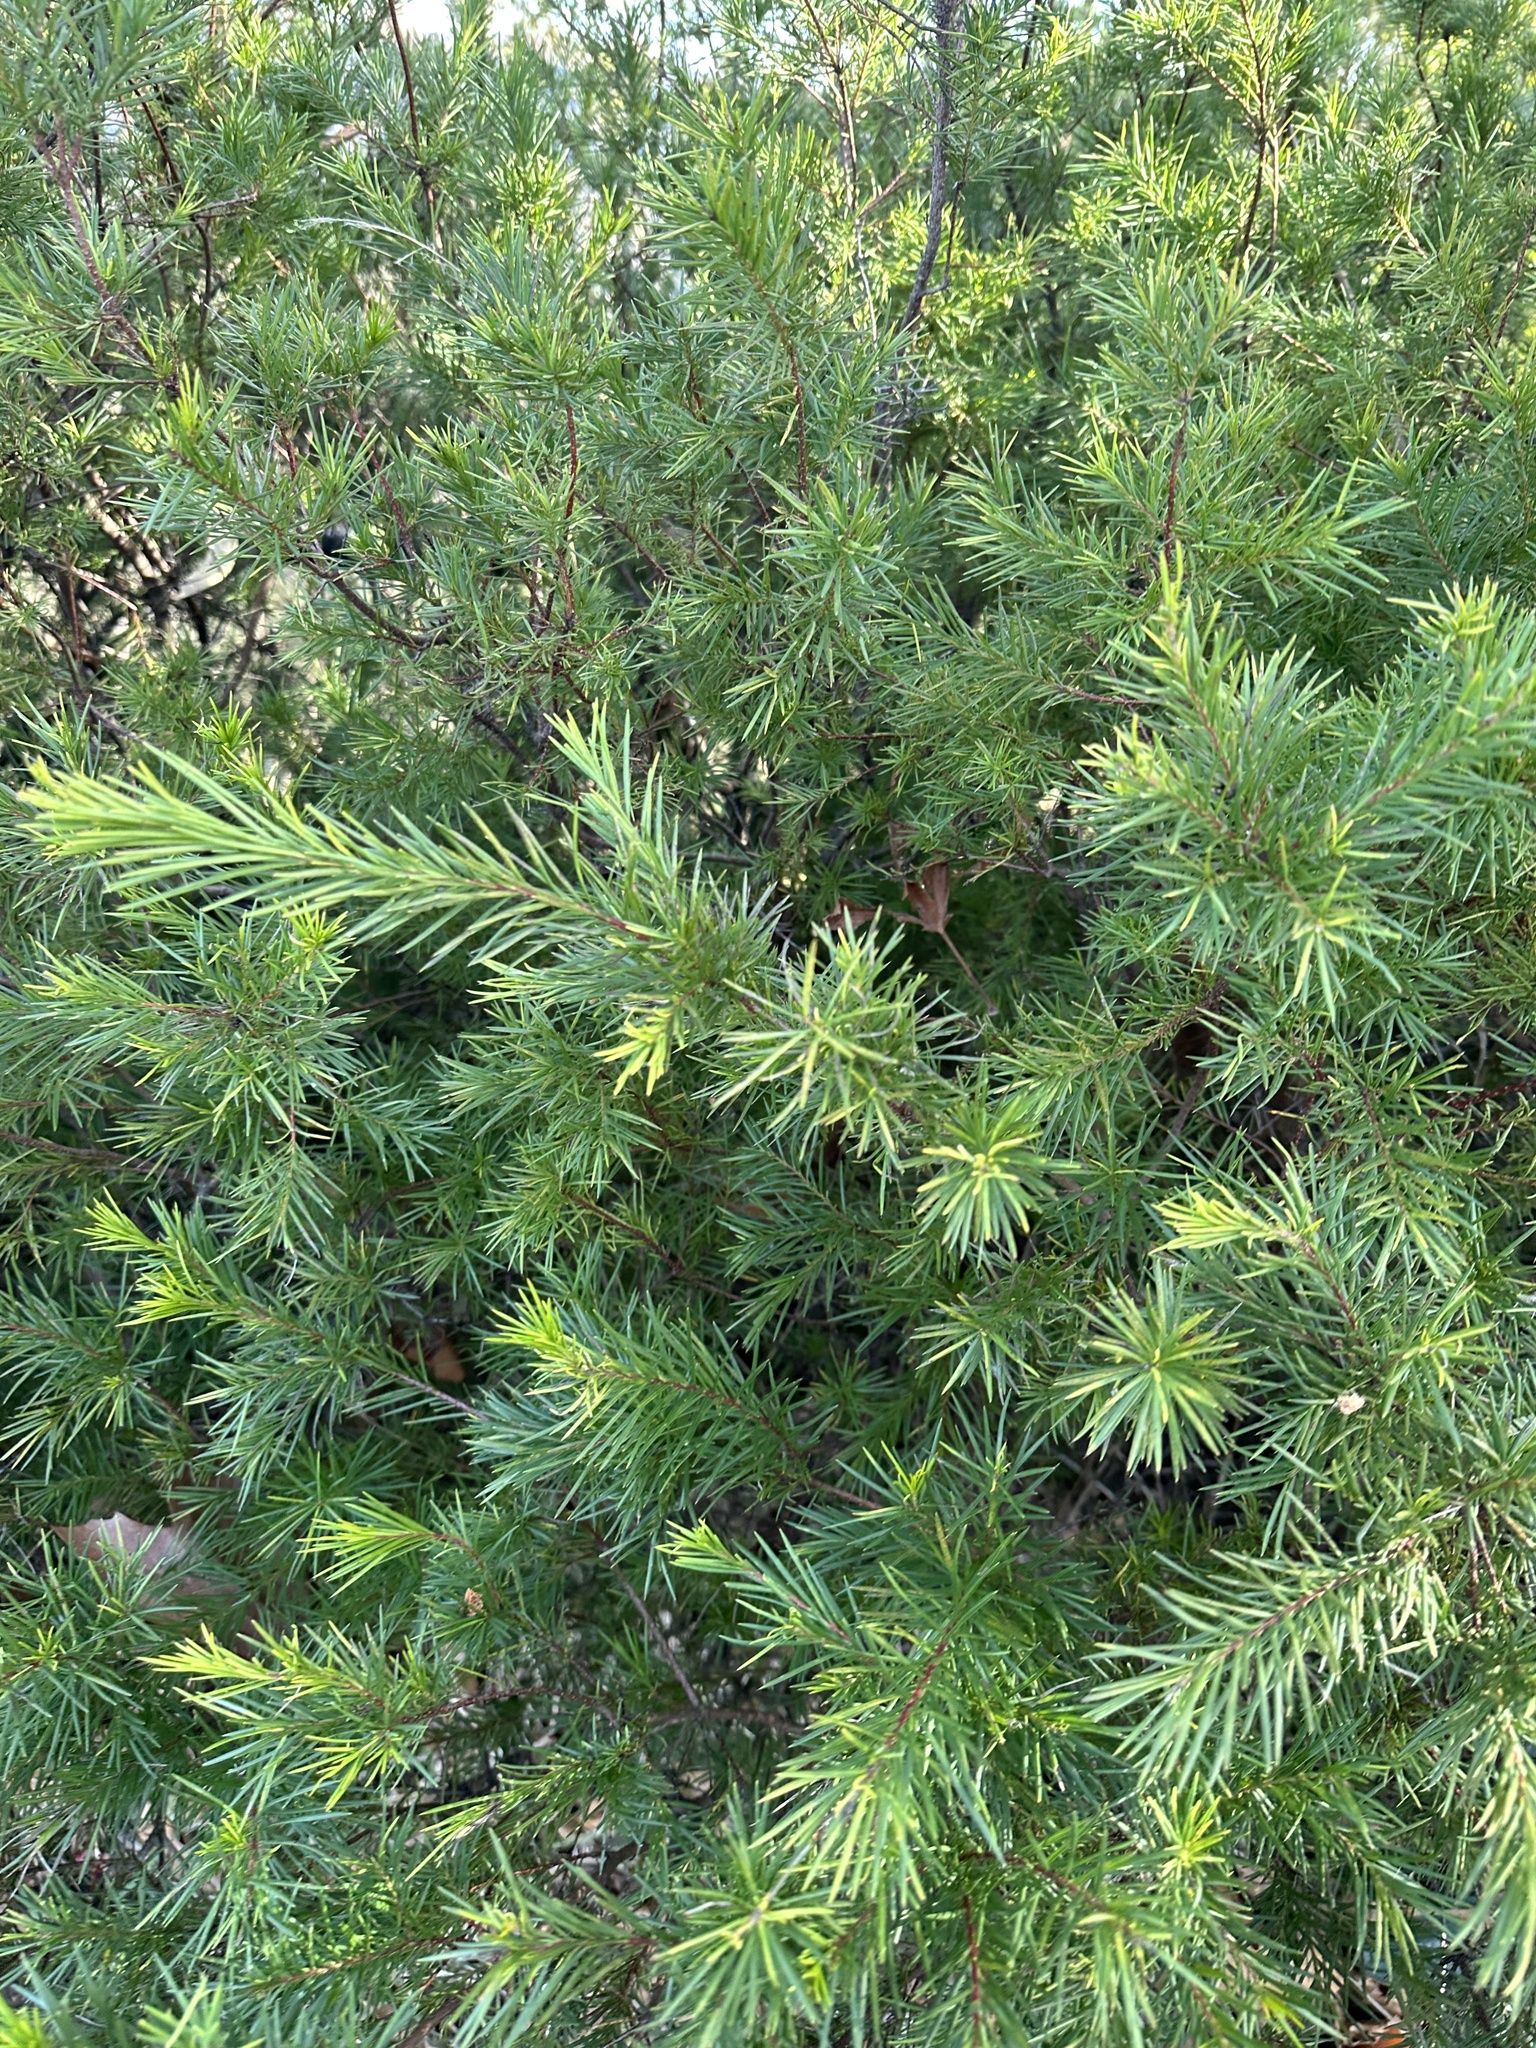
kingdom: Plantae
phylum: Tracheophyta
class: Magnoliopsida
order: Proteales
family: Proteaceae
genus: Grevillea
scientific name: Grevillea rosmarinifolia
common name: Rosemary grevillea
